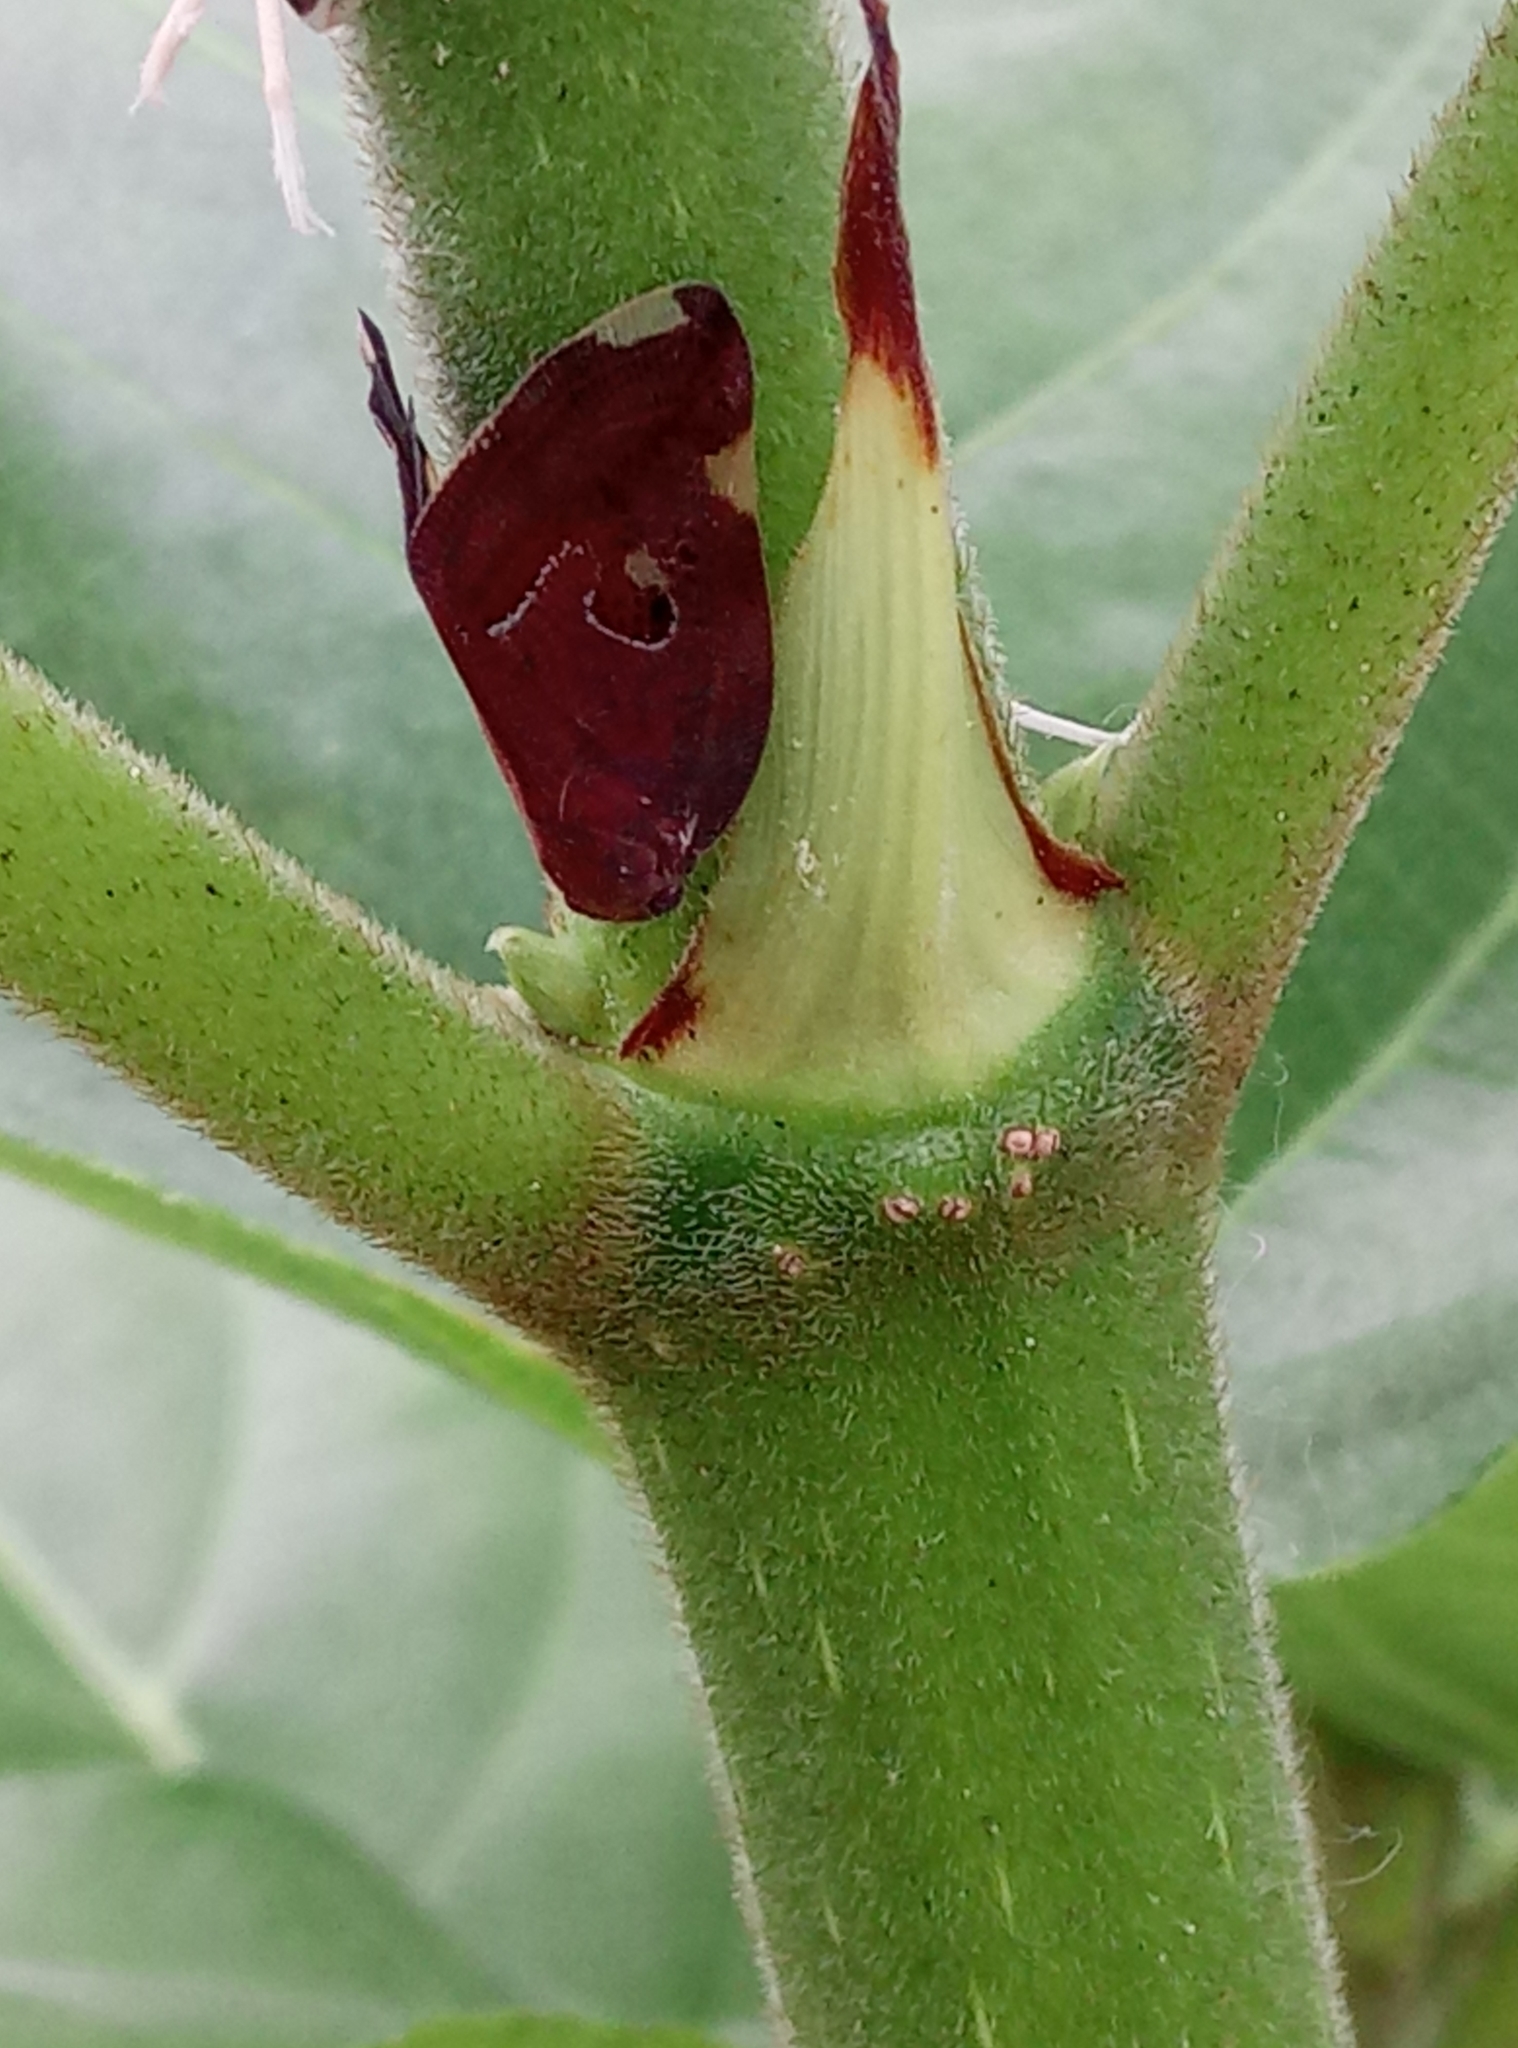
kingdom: Animalia
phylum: Arthropoda
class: Insecta
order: Hemiptera
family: Ricaniidae
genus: Ricania
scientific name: Ricania guttata
